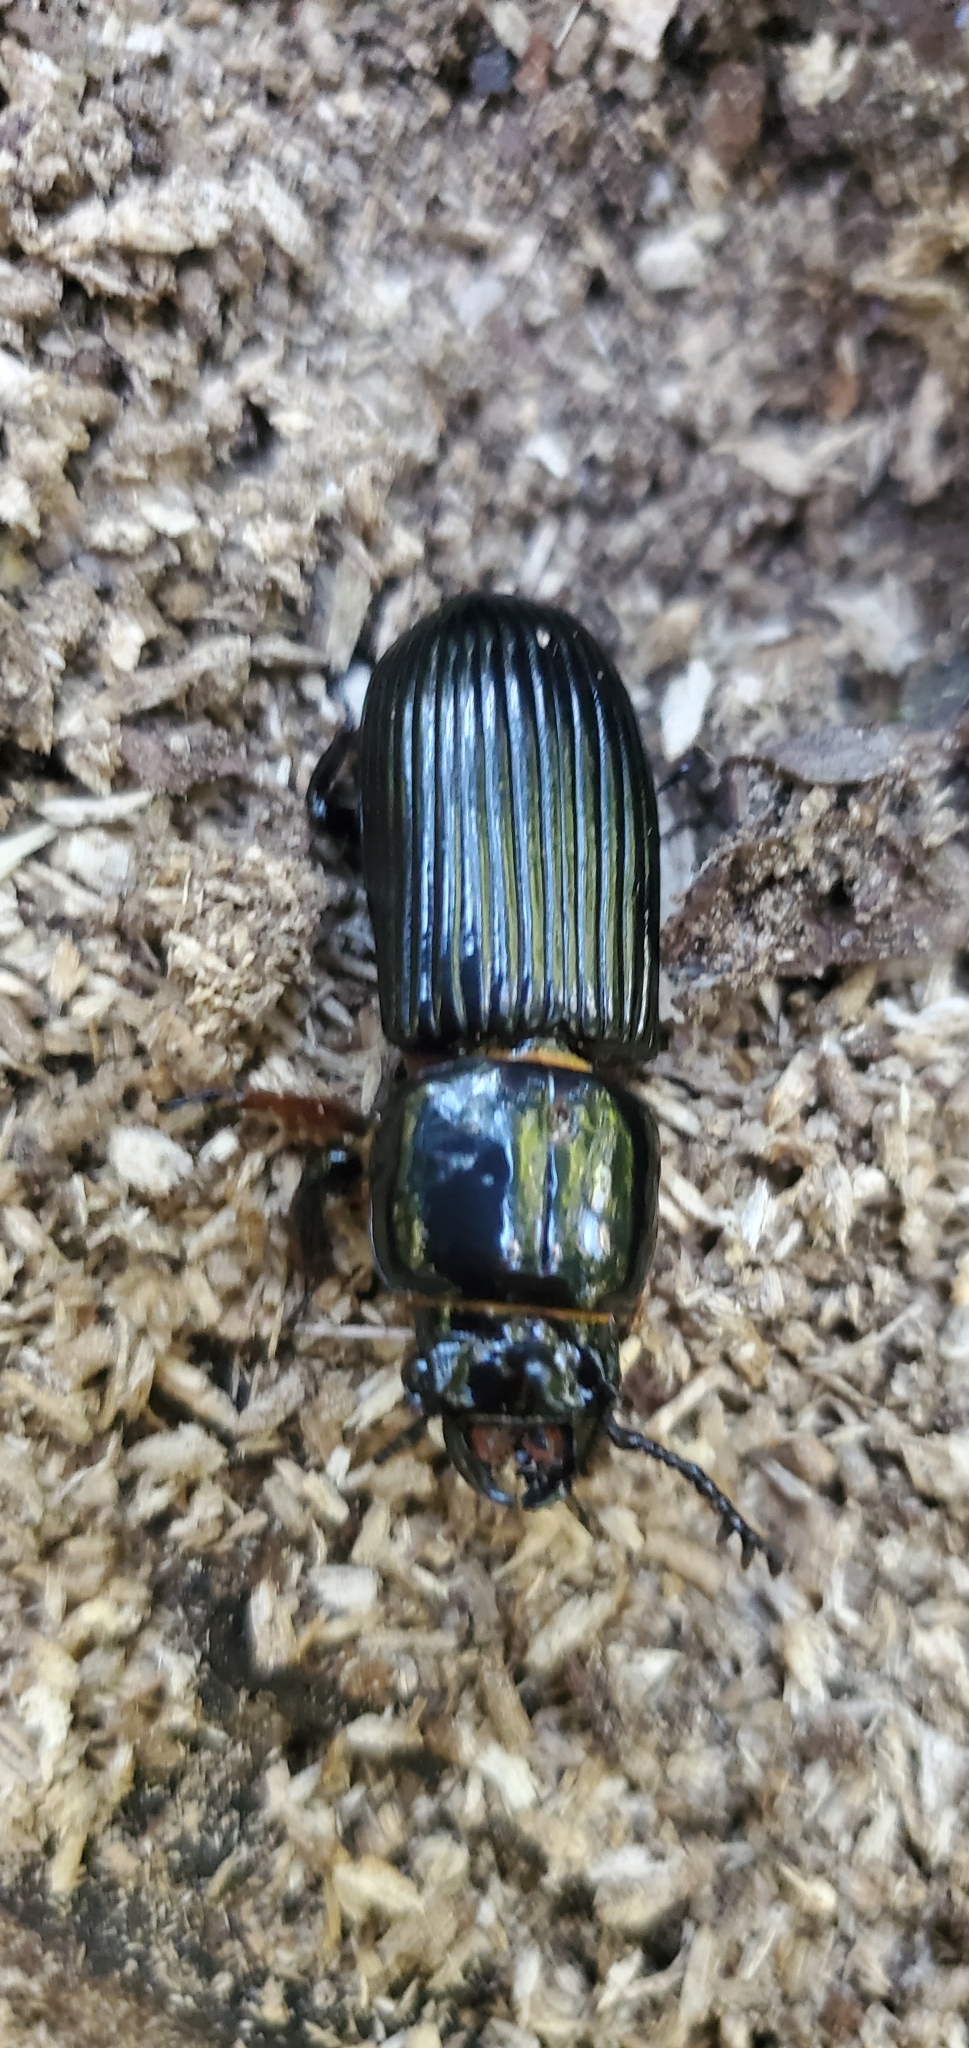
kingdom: Animalia
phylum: Arthropoda
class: Insecta
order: Coleoptera
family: Passalidae
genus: Odontotaenius
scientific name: Odontotaenius disjunctus
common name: Patent leather beetle
